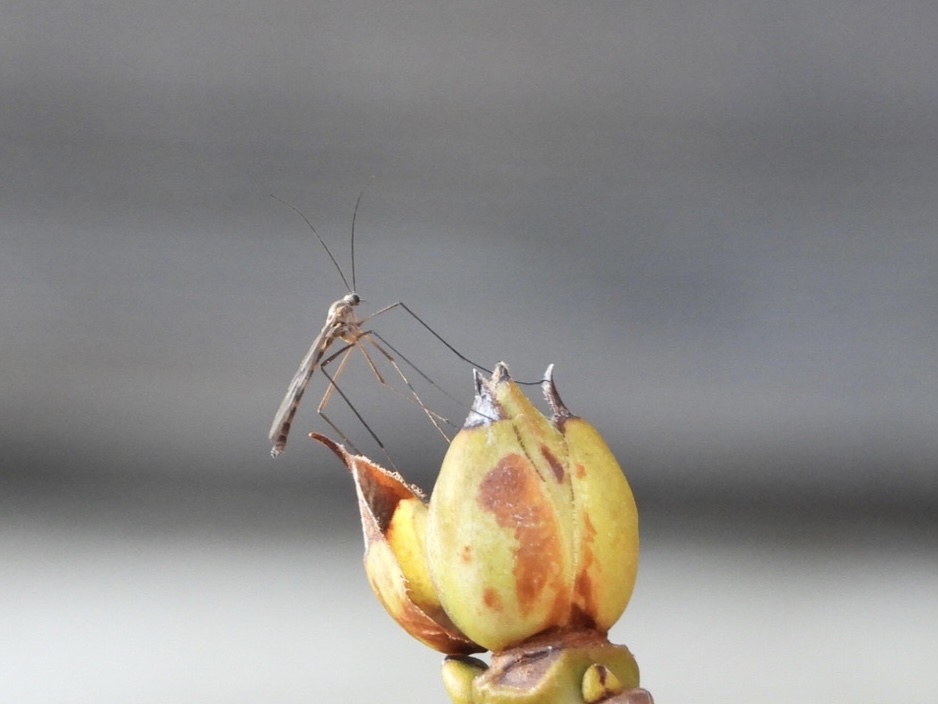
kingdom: Animalia
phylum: Arthropoda
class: Insecta
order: Diptera
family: Pachyneuridae
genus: Cramptonomyia
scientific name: Cramptonomyia spenceri
